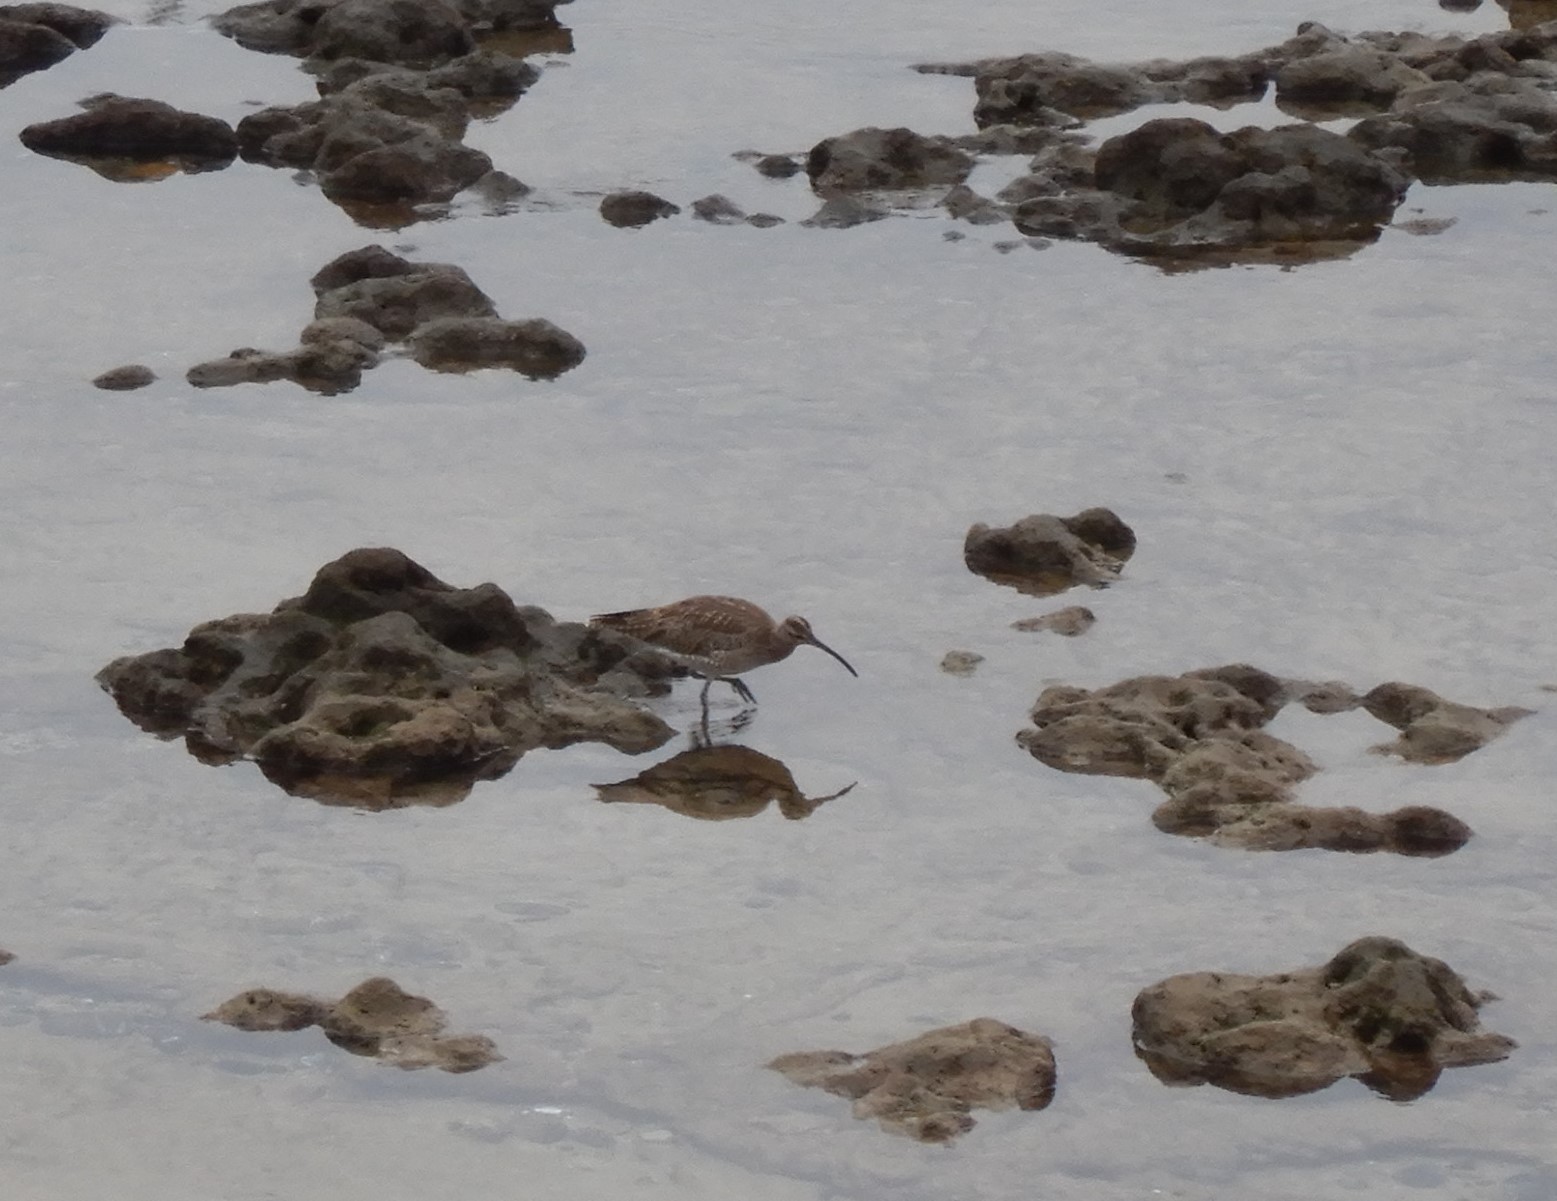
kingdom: Animalia
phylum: Chordata
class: Aves
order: Charadriiformes
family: Scolopacidae
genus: Numenius
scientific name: Numenius phaeopus
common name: Whimbrel
